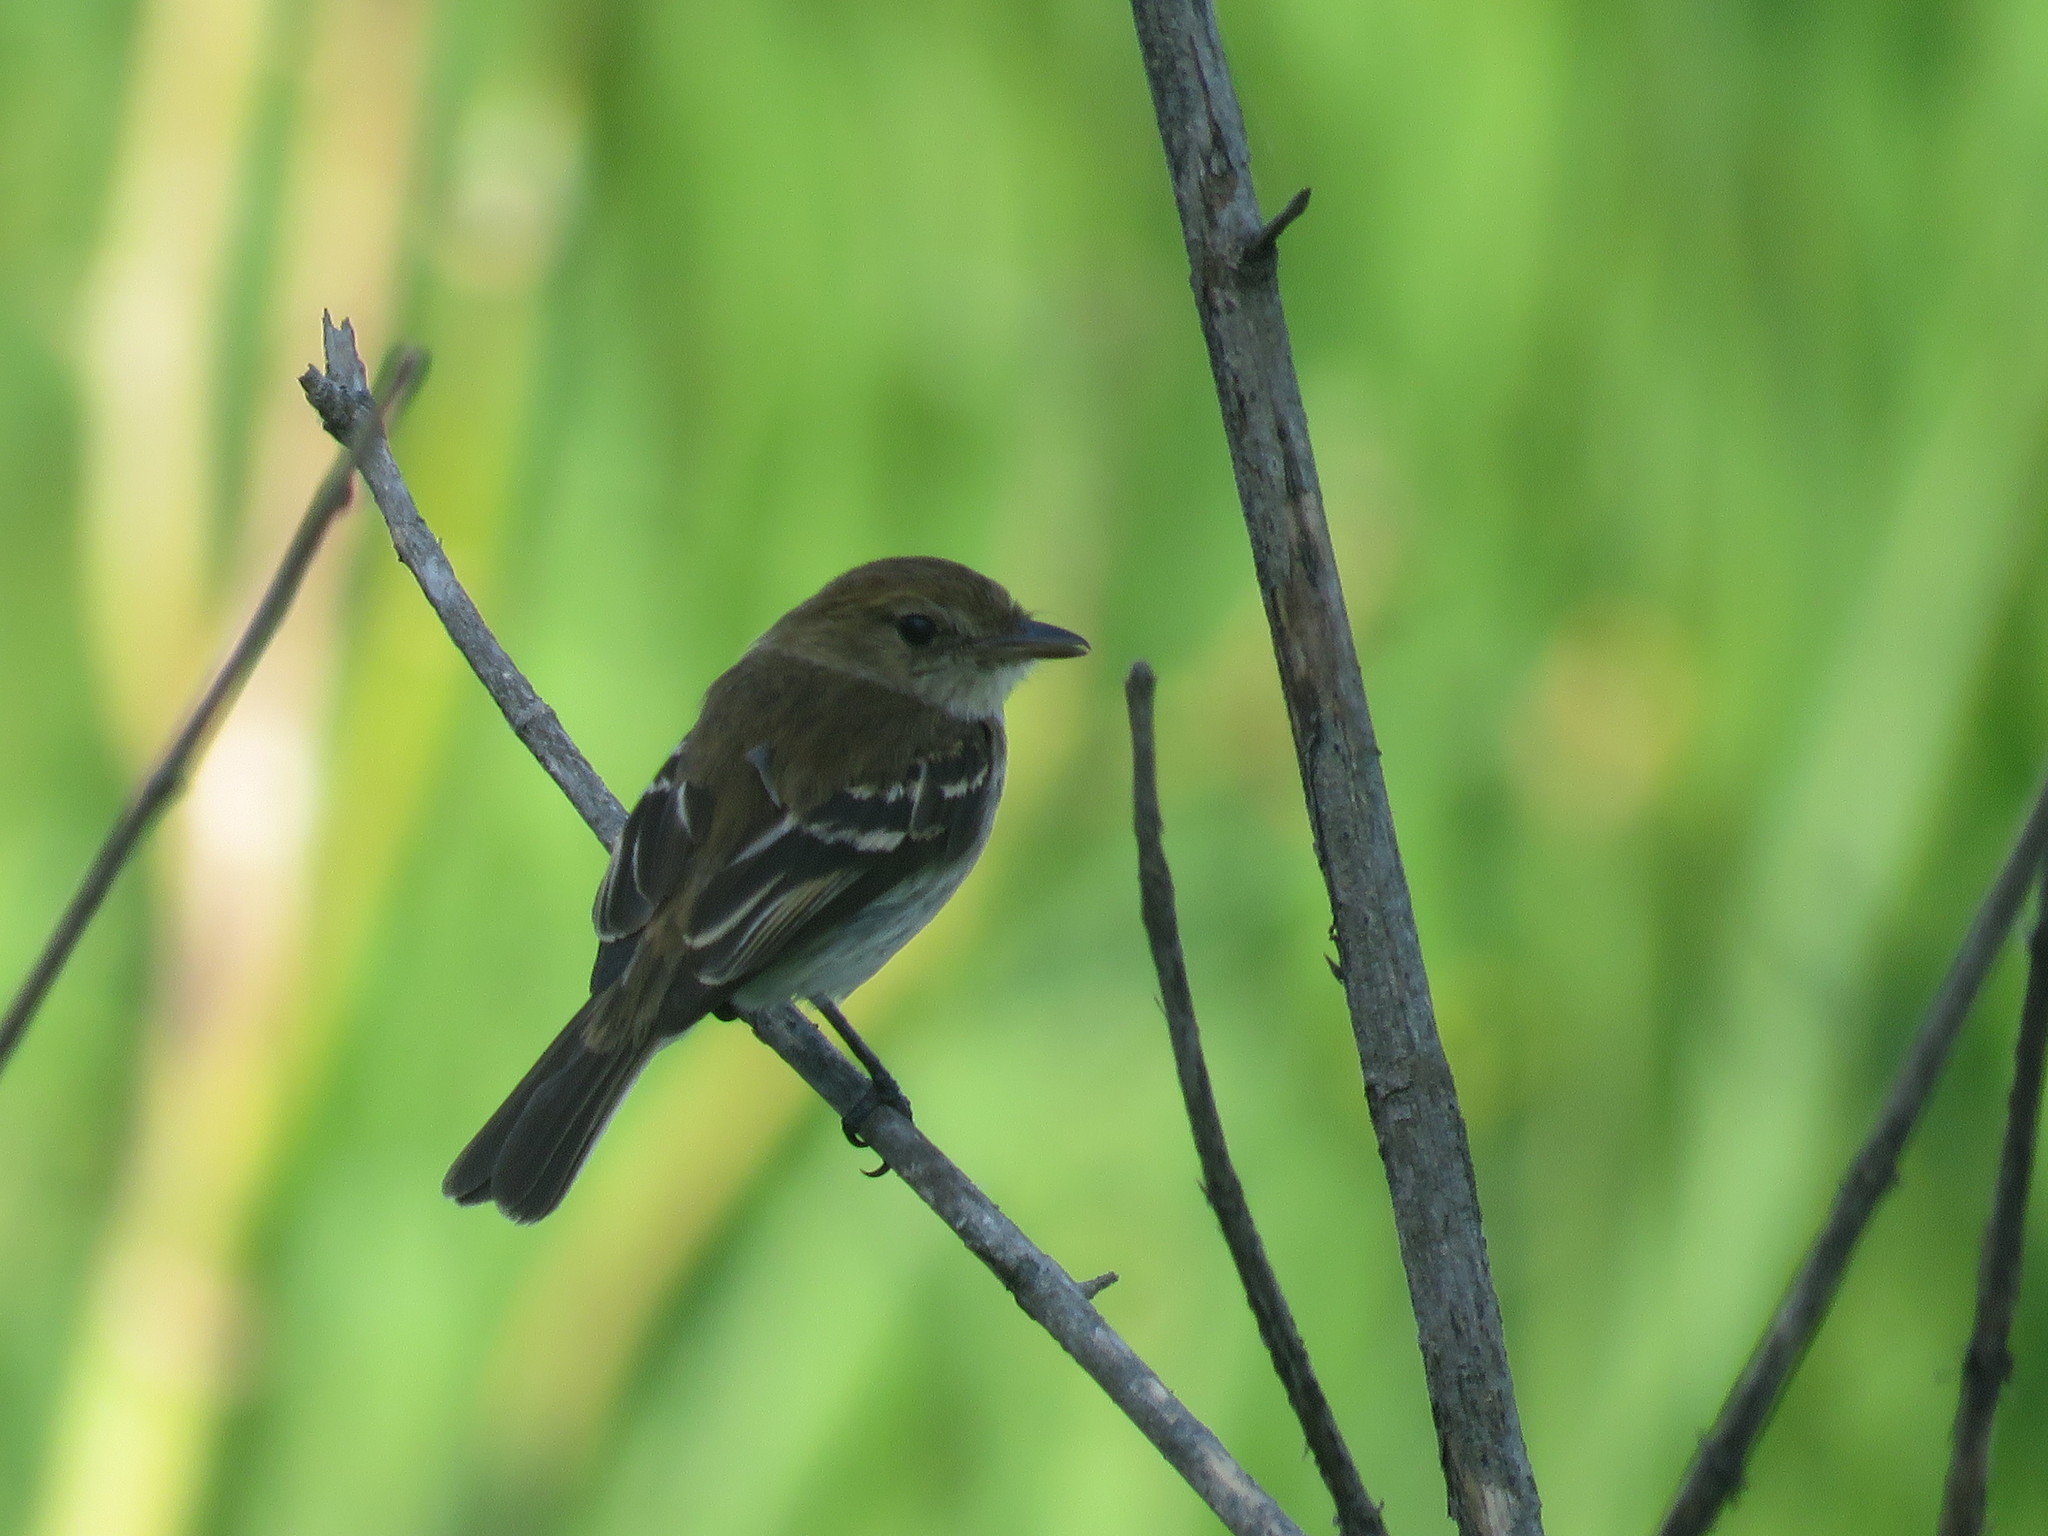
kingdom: Animalia
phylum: Chordata
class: Aves
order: Passeriformes
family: Tyrannidae
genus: Myiophobus
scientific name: Myiophobus fasciatus
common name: Bran-colored flycatcher
